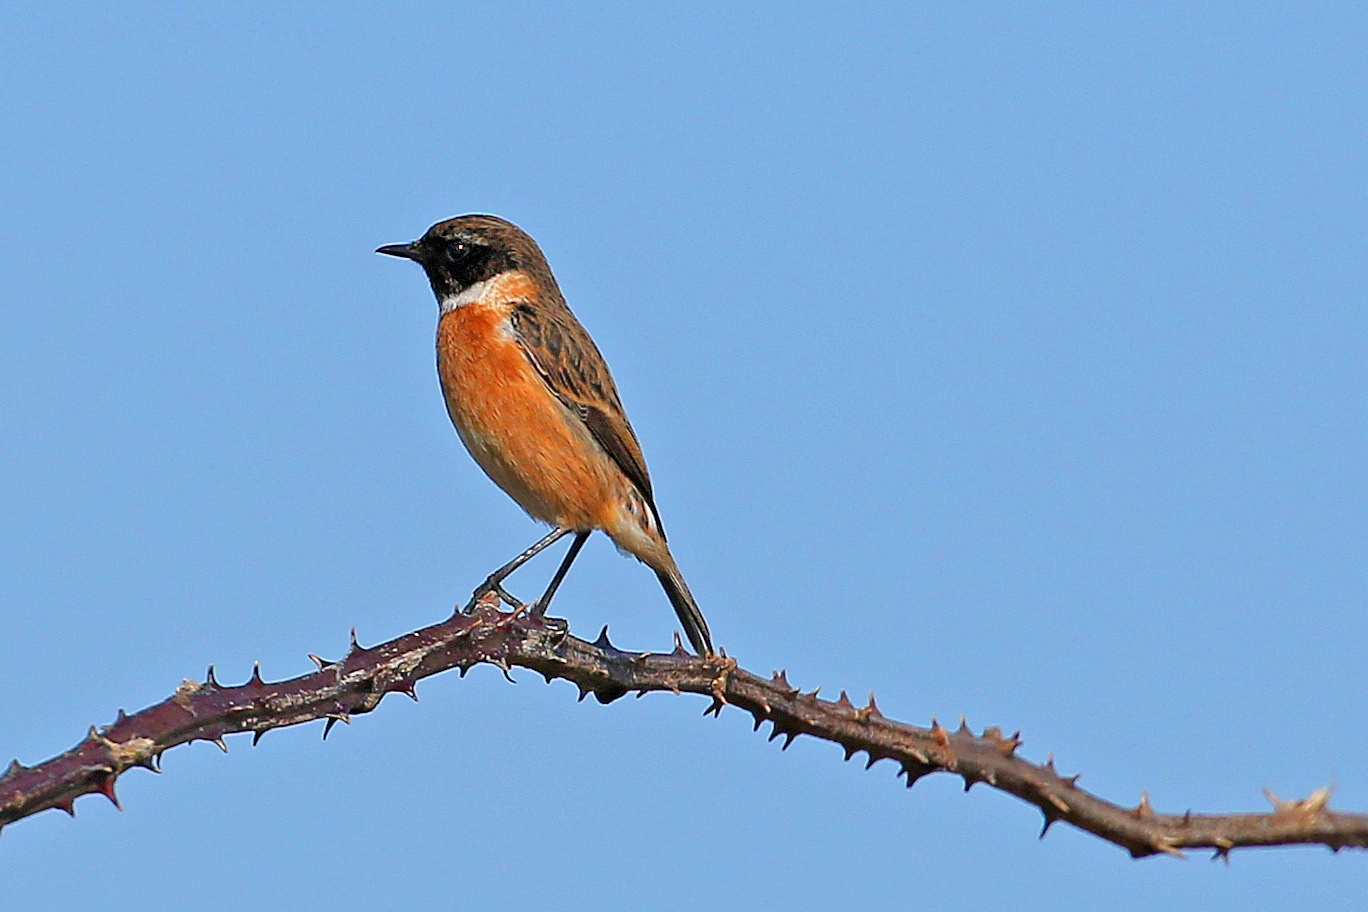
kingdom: Animalia
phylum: Chordata
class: Aves
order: Passeriformes
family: Muscicapidae
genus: Saxicola
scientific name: Saxicola rubicola
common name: European stonechat
